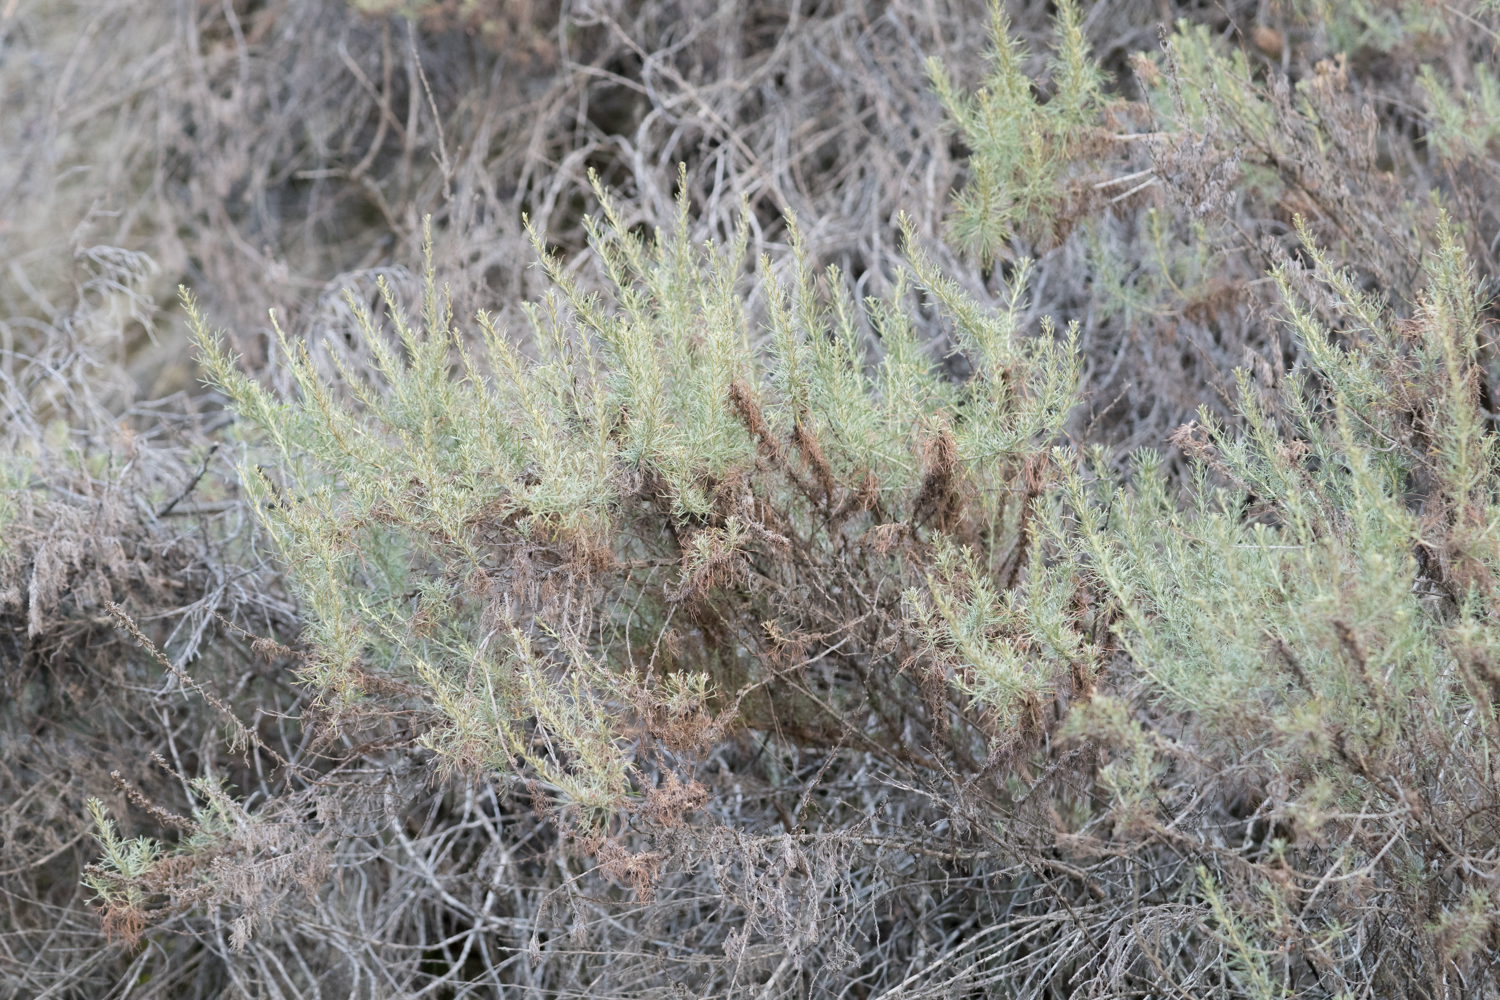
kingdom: Plantae
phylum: Tracheophyta
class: Magnoliopsida
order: Asterales
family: Asteraceae
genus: Artemisia
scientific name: Artemisia californica
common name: California sagebrush
